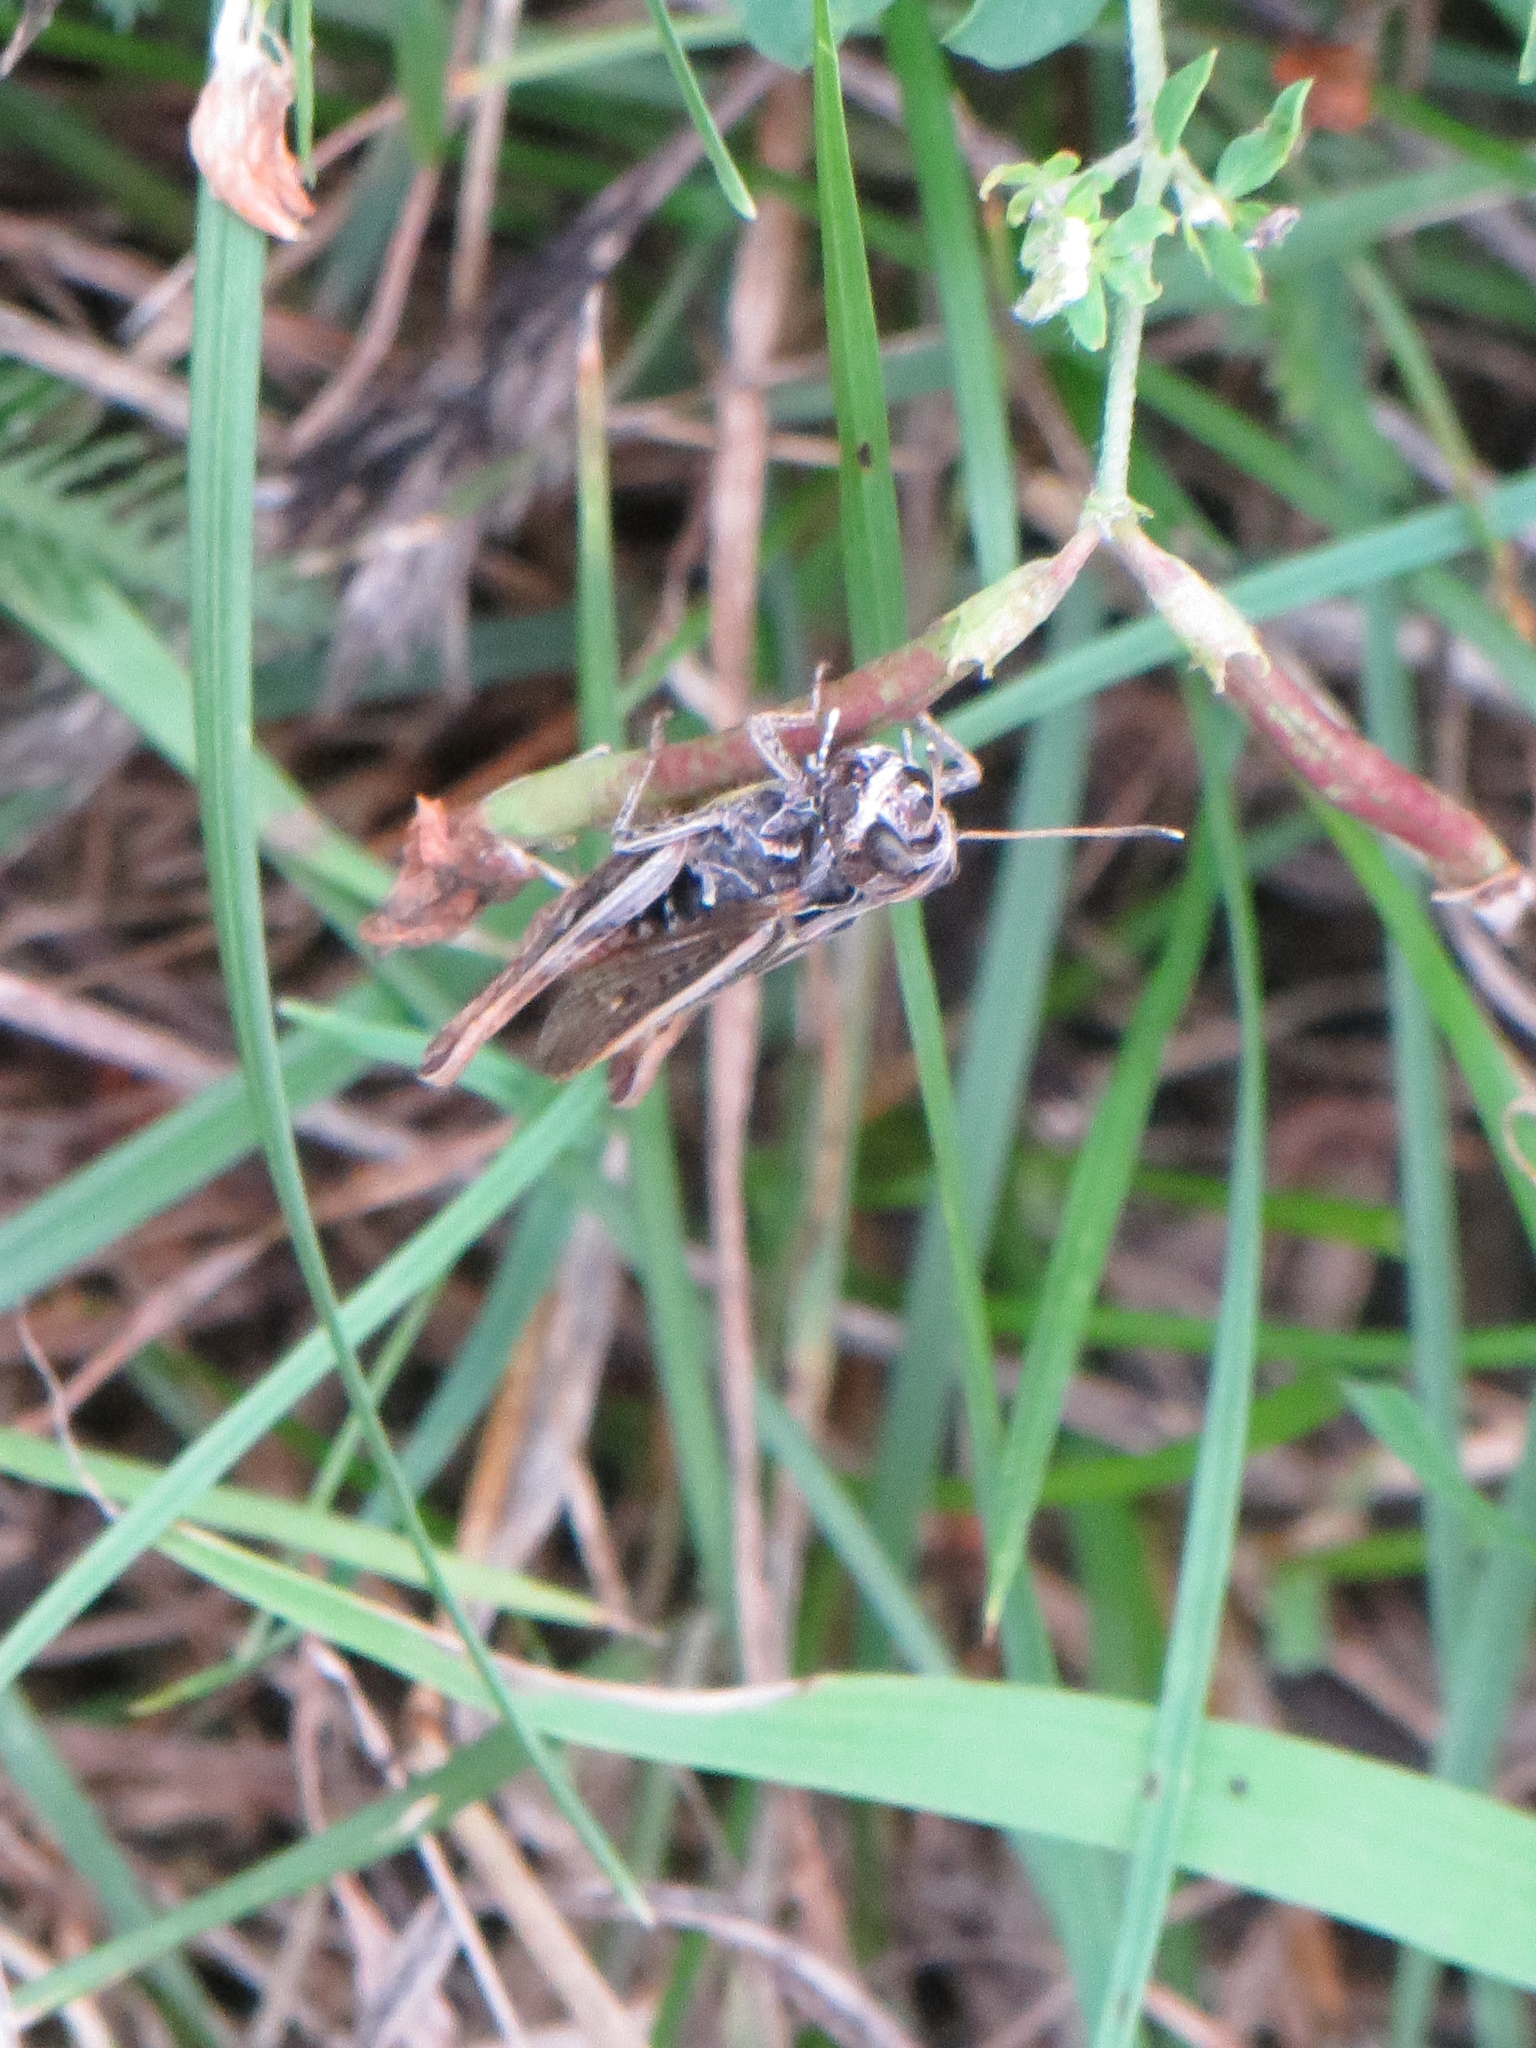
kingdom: Animalia
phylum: Arthropoda
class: Insecta
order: Orthoptera
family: Acrididae
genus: Gomphocerippus
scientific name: Gomphocerippus rufus
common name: Rufous grasshopper
